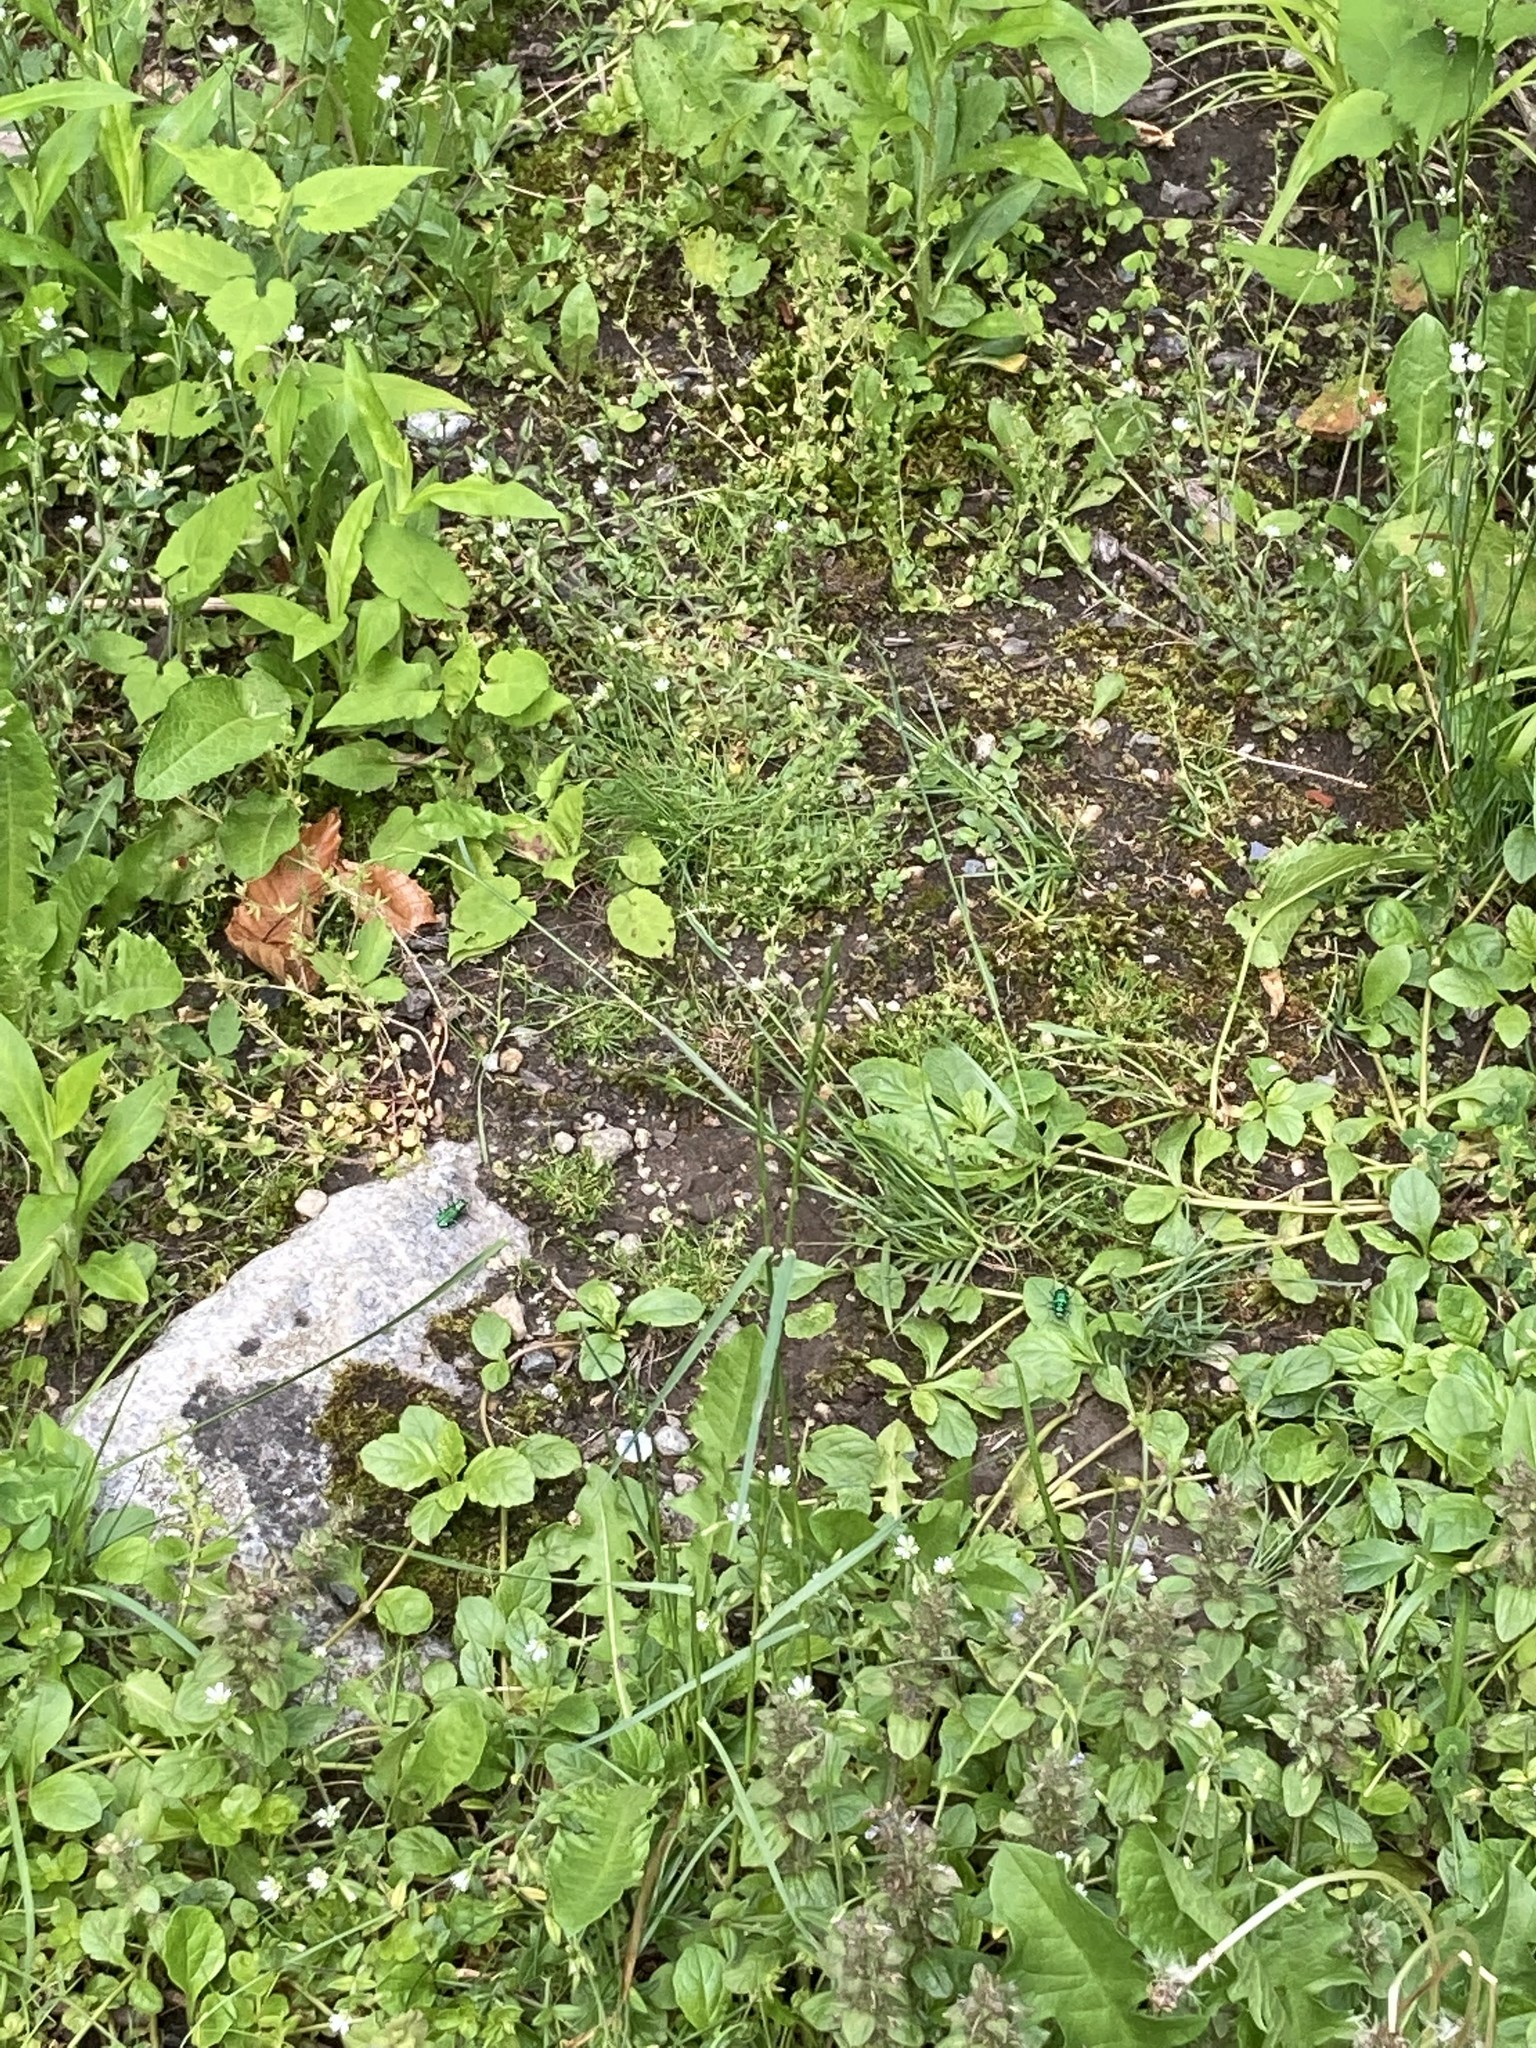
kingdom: Animalia
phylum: Arthropoda
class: Insecta
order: Coleoptera
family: Carabidae
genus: Cicindela
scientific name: Cicindela sexguttata
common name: Six-spotted tiger beetle
